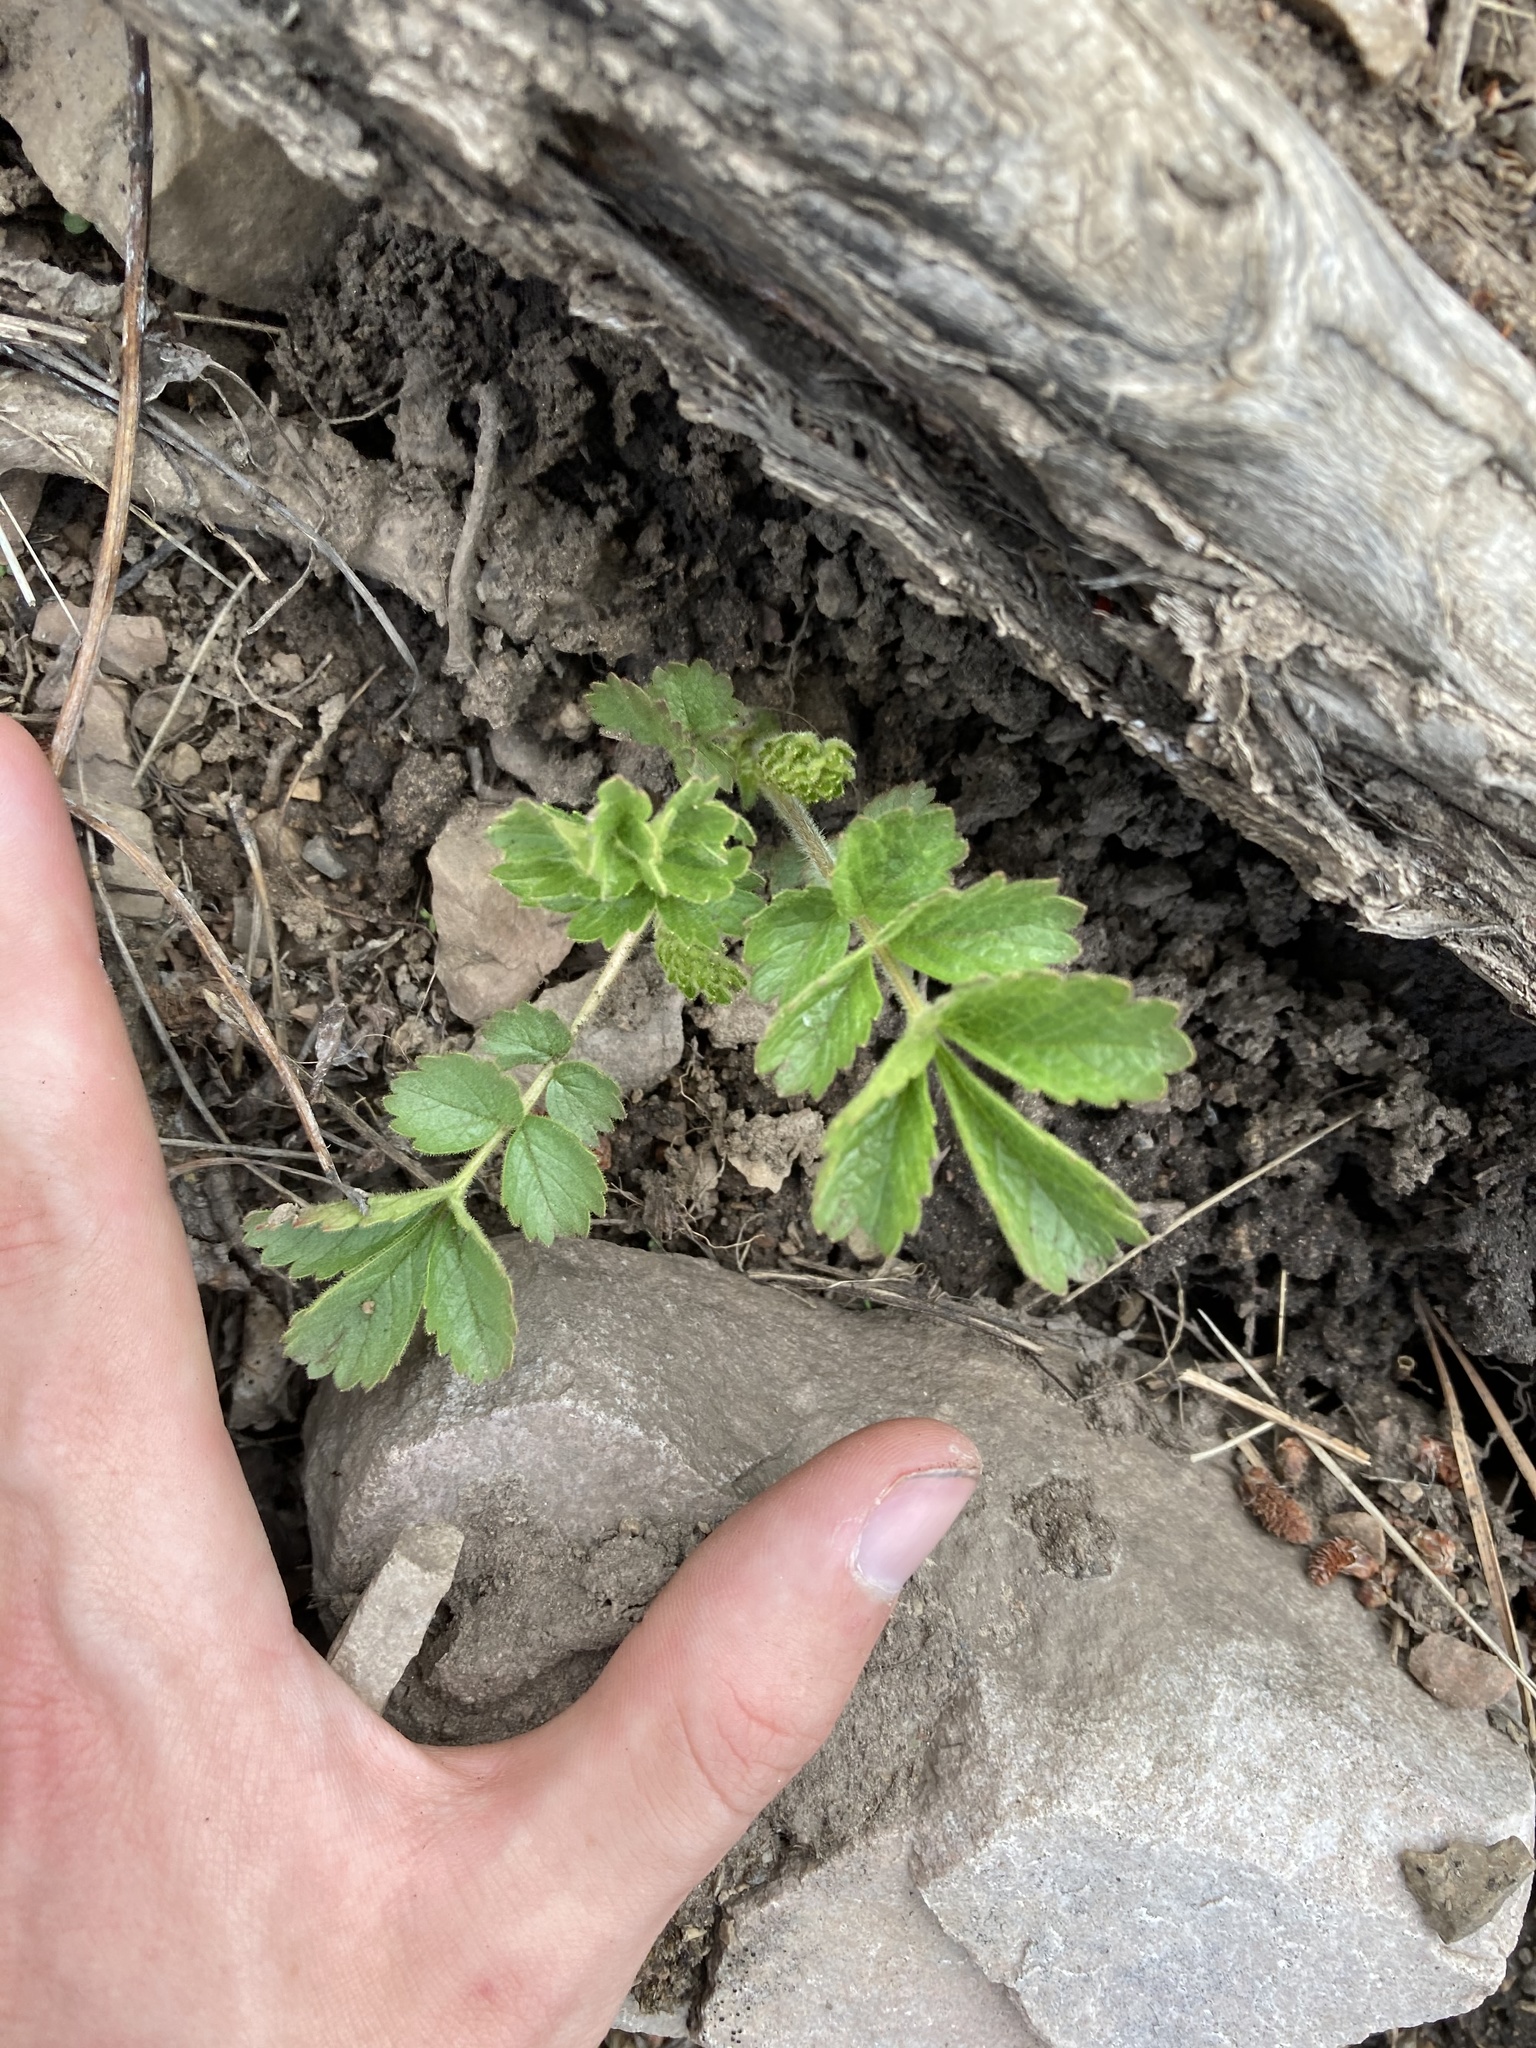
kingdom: Plantae
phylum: Tracheophyta
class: Magnoliopsida
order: Rosales
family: Rosaceae
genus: Drymocallis
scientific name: Drymocallis arguta
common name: Tall cinquefoil
